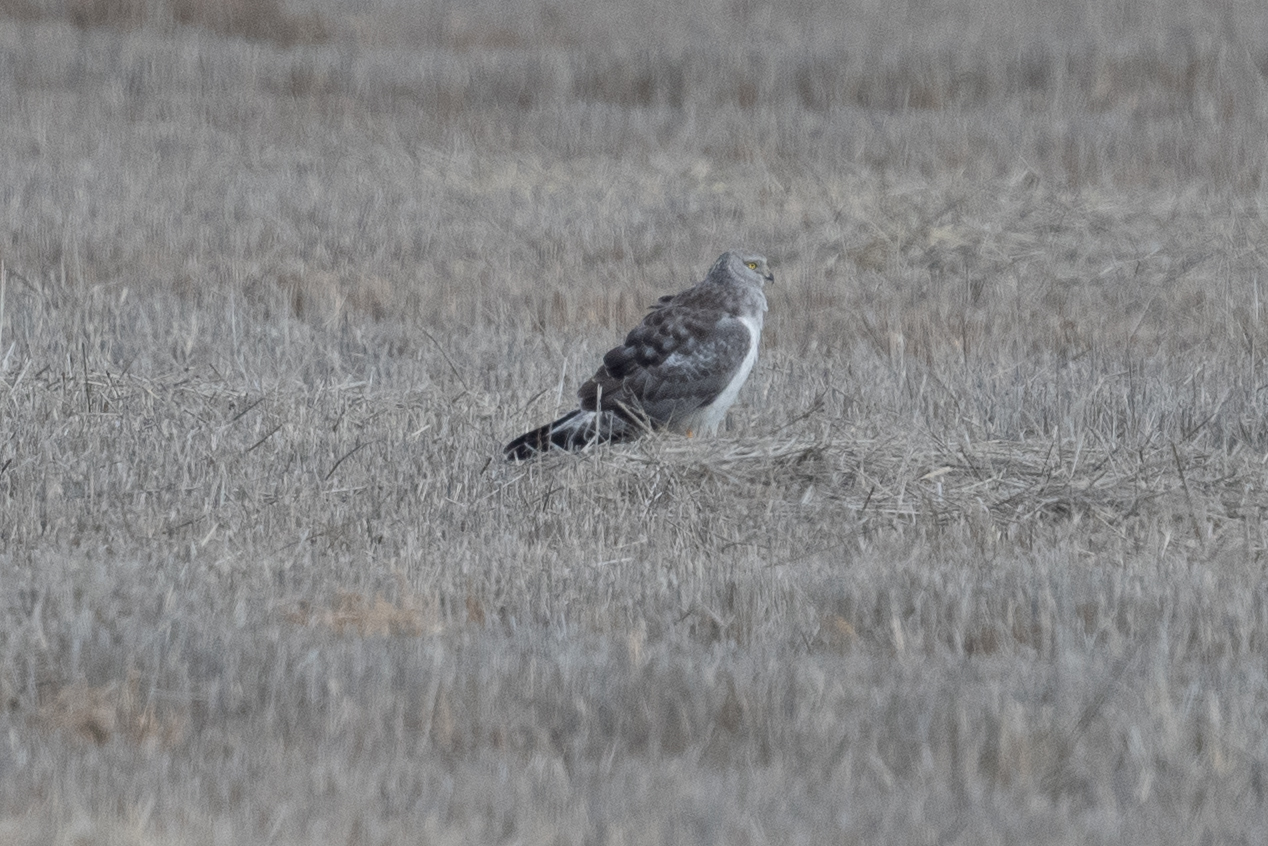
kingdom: Animalia
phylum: Chordata
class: Aves
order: Accipitriformes
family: Accipitridae
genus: Circus
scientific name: Circus cyaneus
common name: Hen harrier
